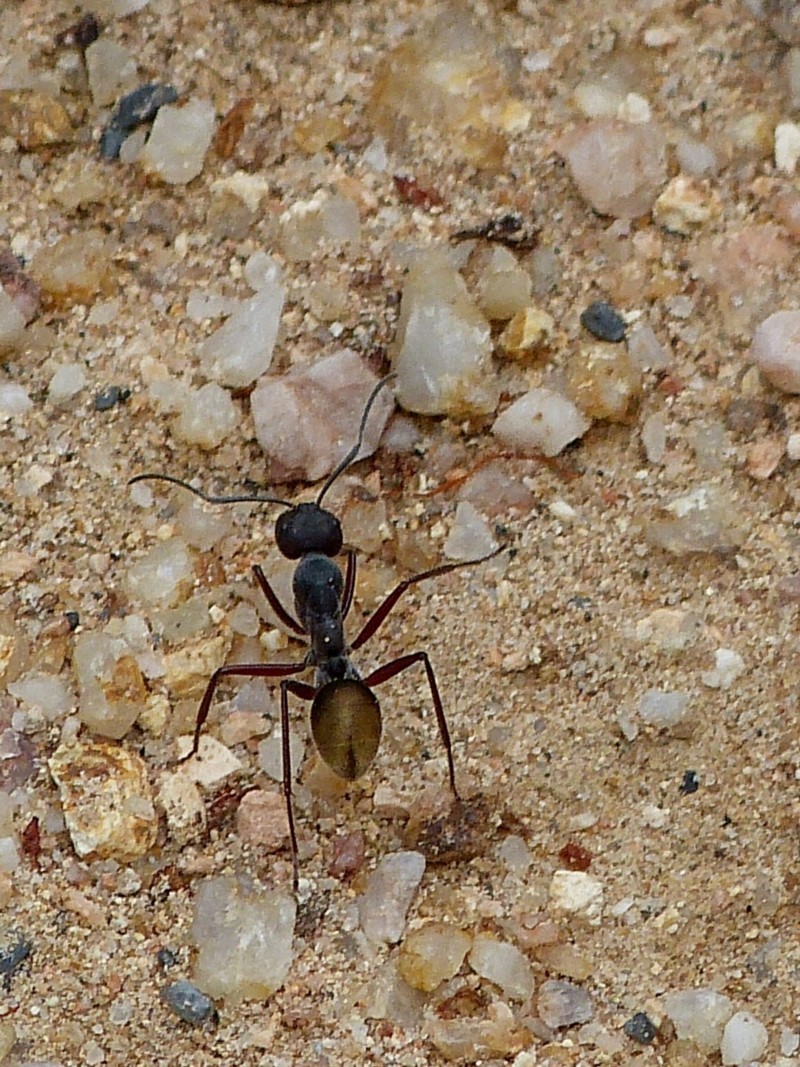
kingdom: Animalia
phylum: Arthropoda
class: Insecta
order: Hymenoptera
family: Formicidae
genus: Camponotus
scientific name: Camponotus suffusus
